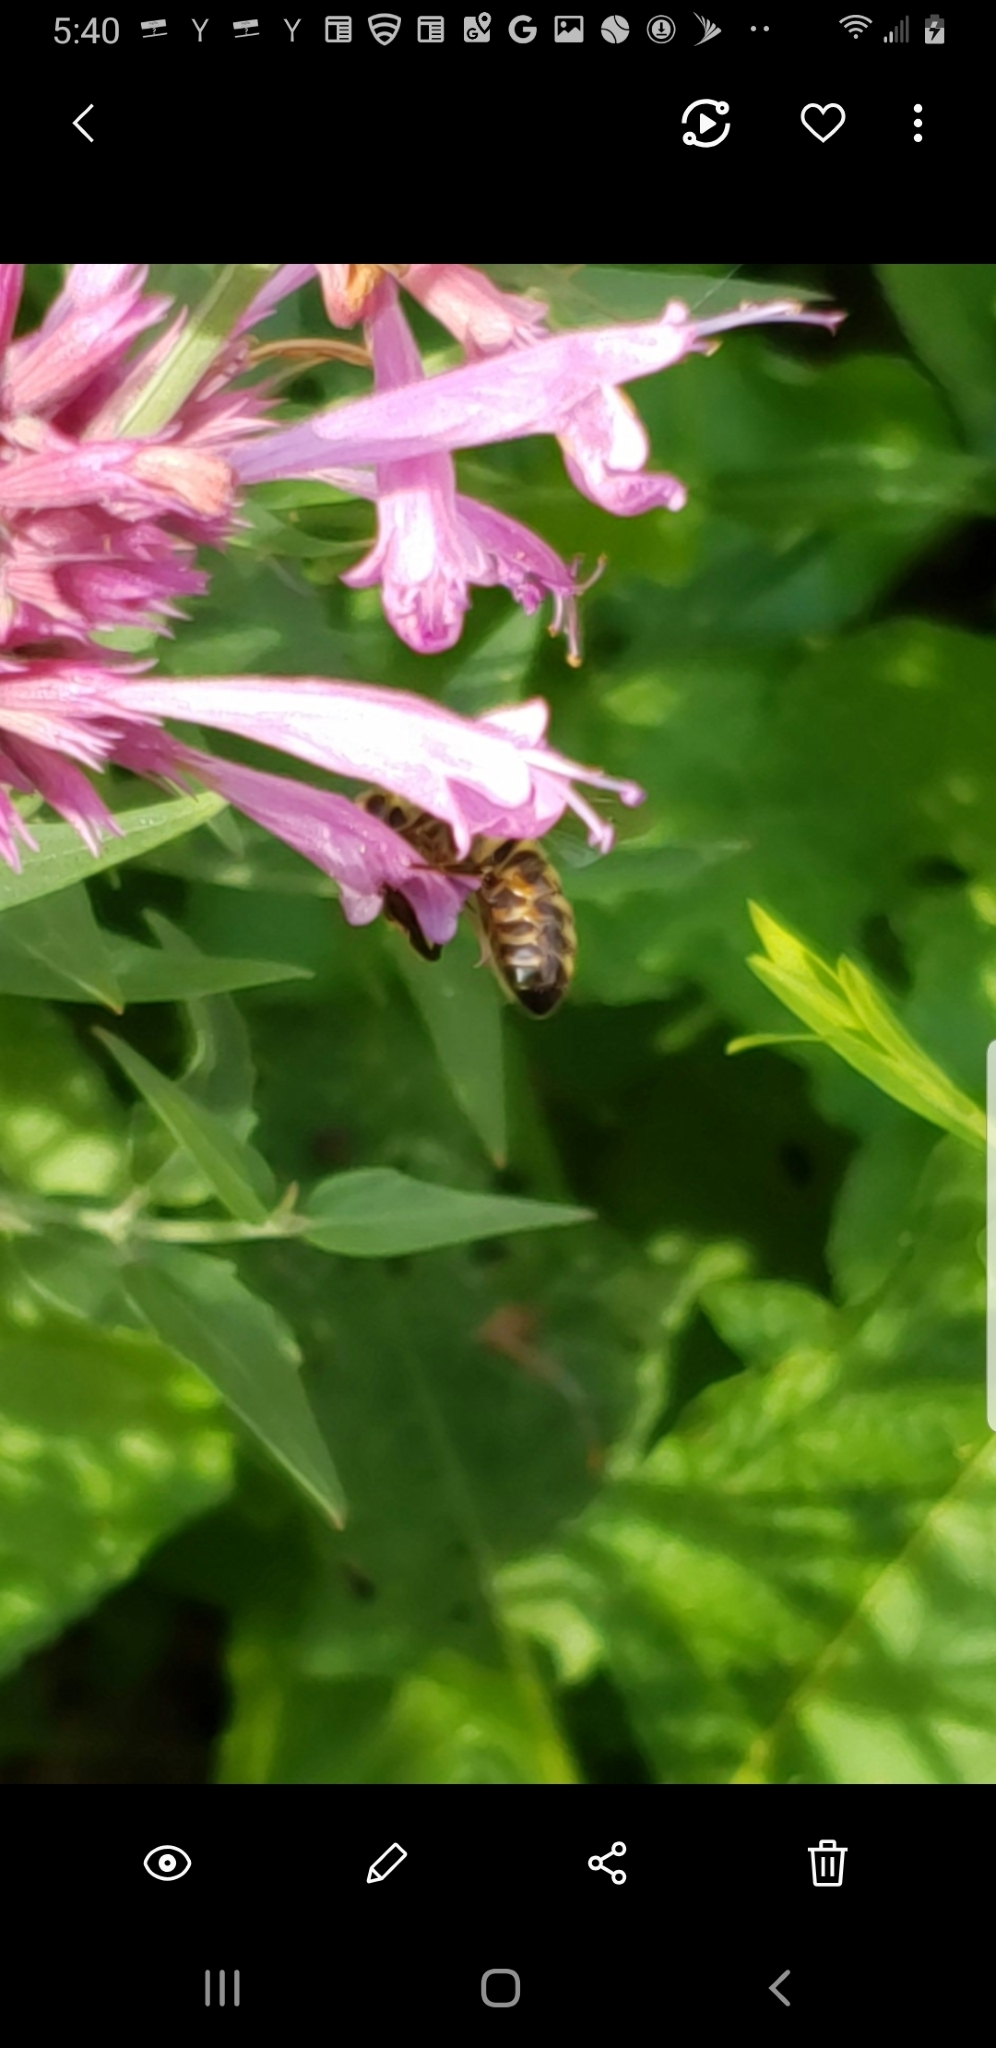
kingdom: Animalia
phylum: Arthropoda
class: Insecta
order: Hymenoptera
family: Apidae
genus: Apis
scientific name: Apis mellifera
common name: Honey bee
